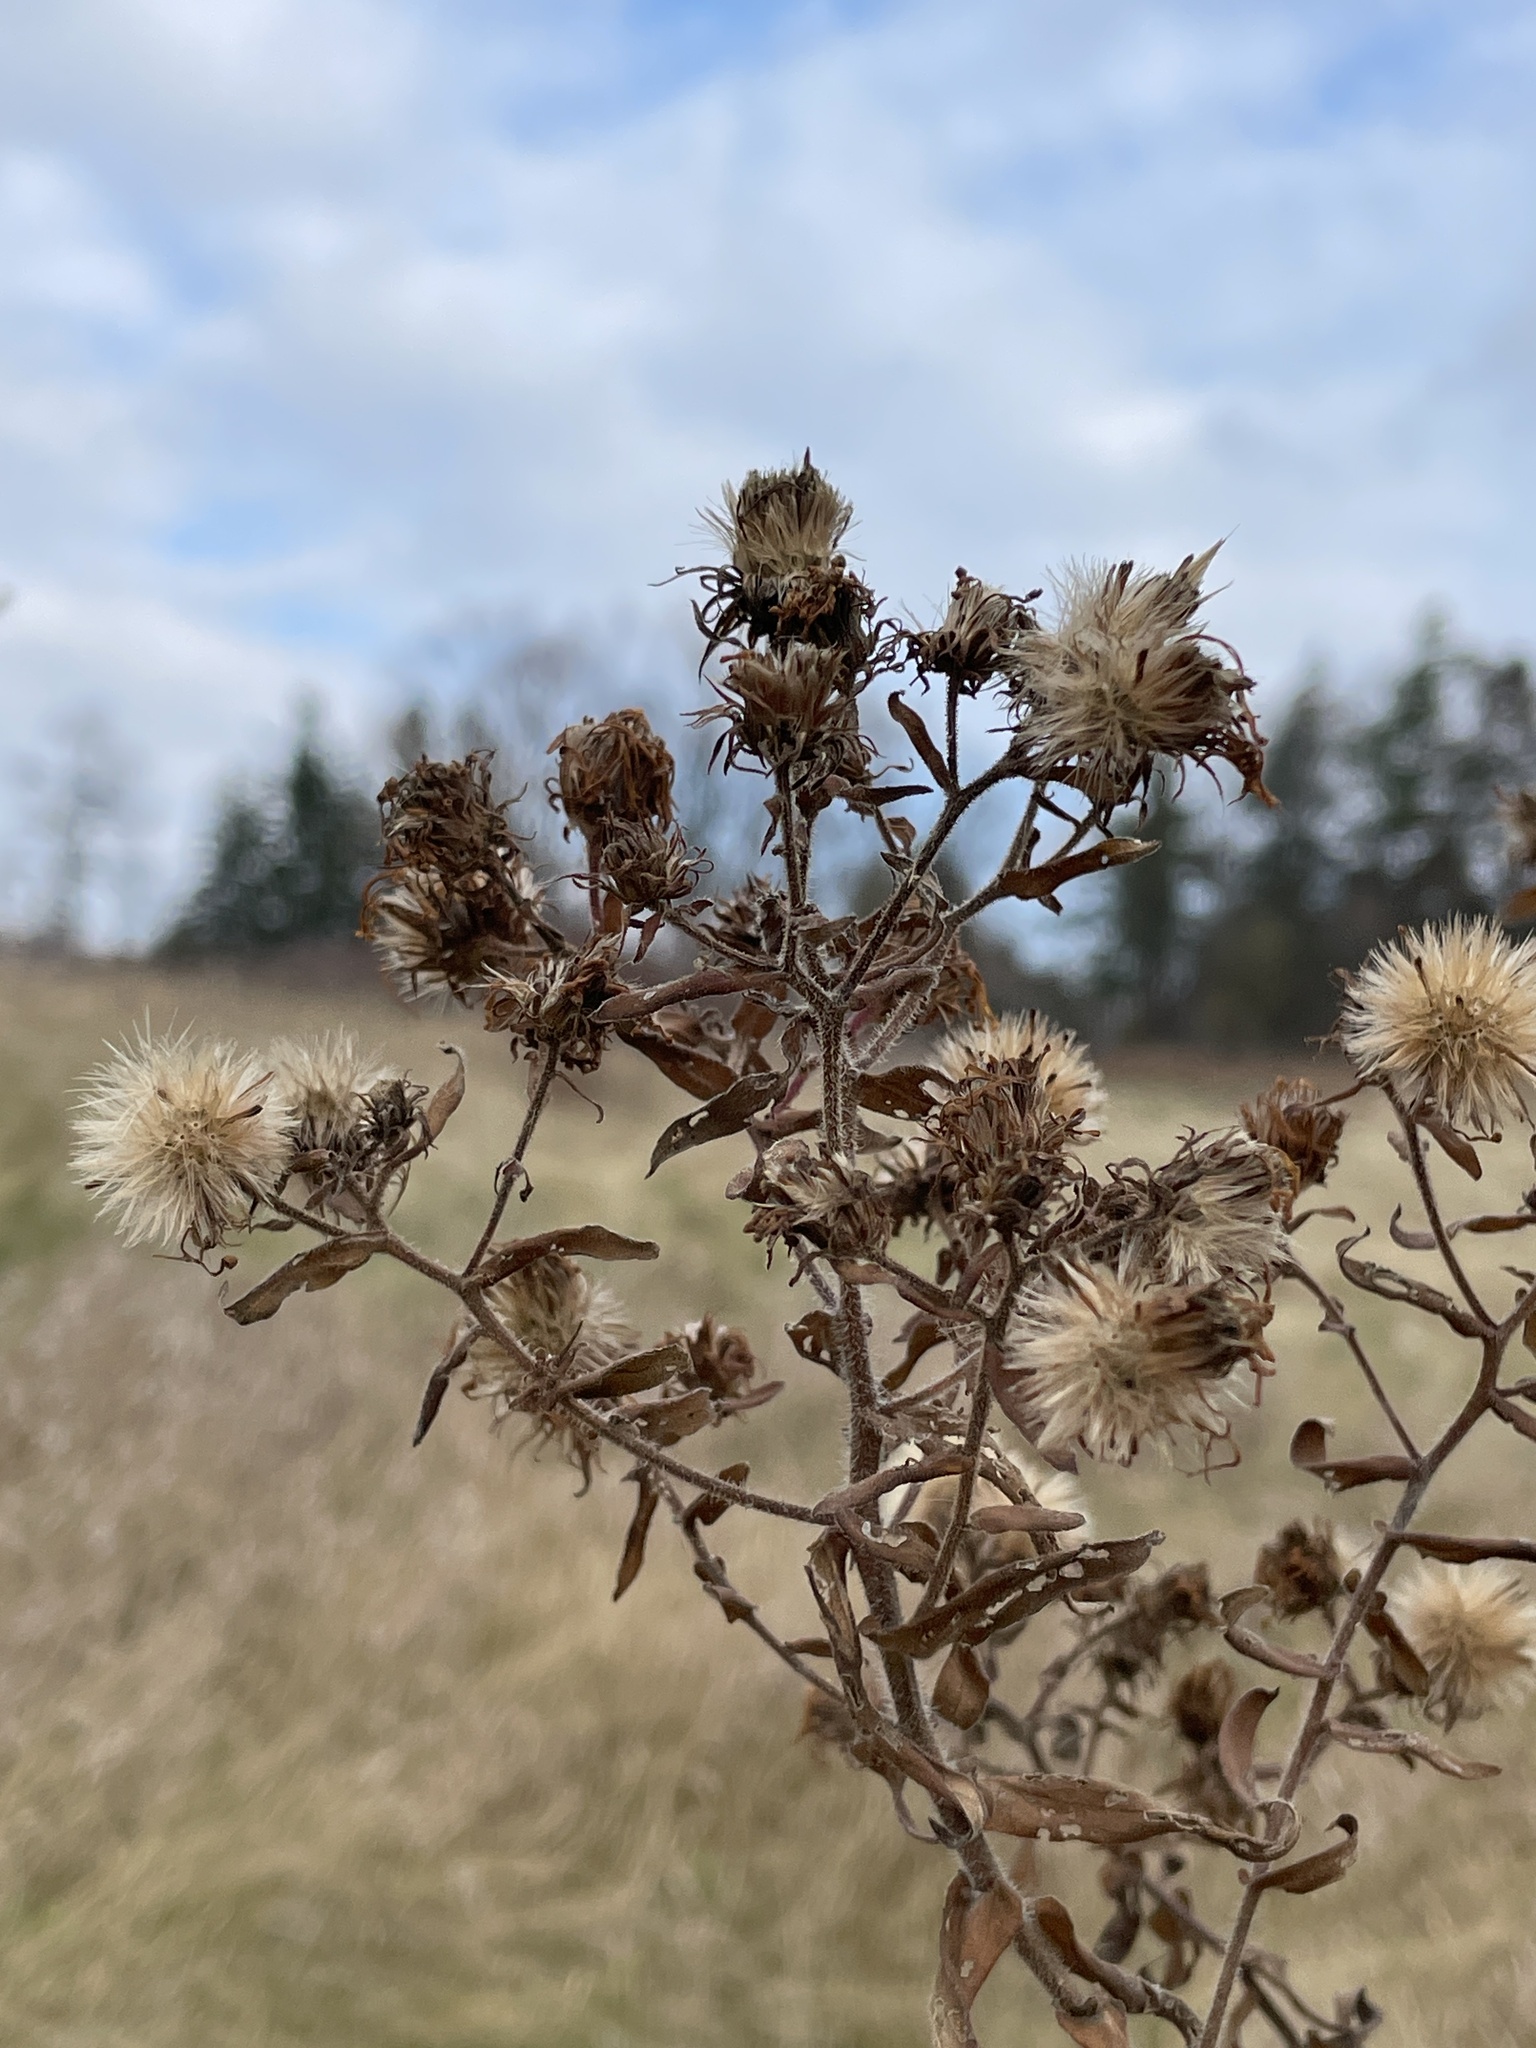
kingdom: Plantae
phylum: Tracheophyta
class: Magnoliopsida
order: Asterales
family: Asteraceae
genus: Symphyotrichum
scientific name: Symphyotrichum novae-angliae
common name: Michaelmas daisy
